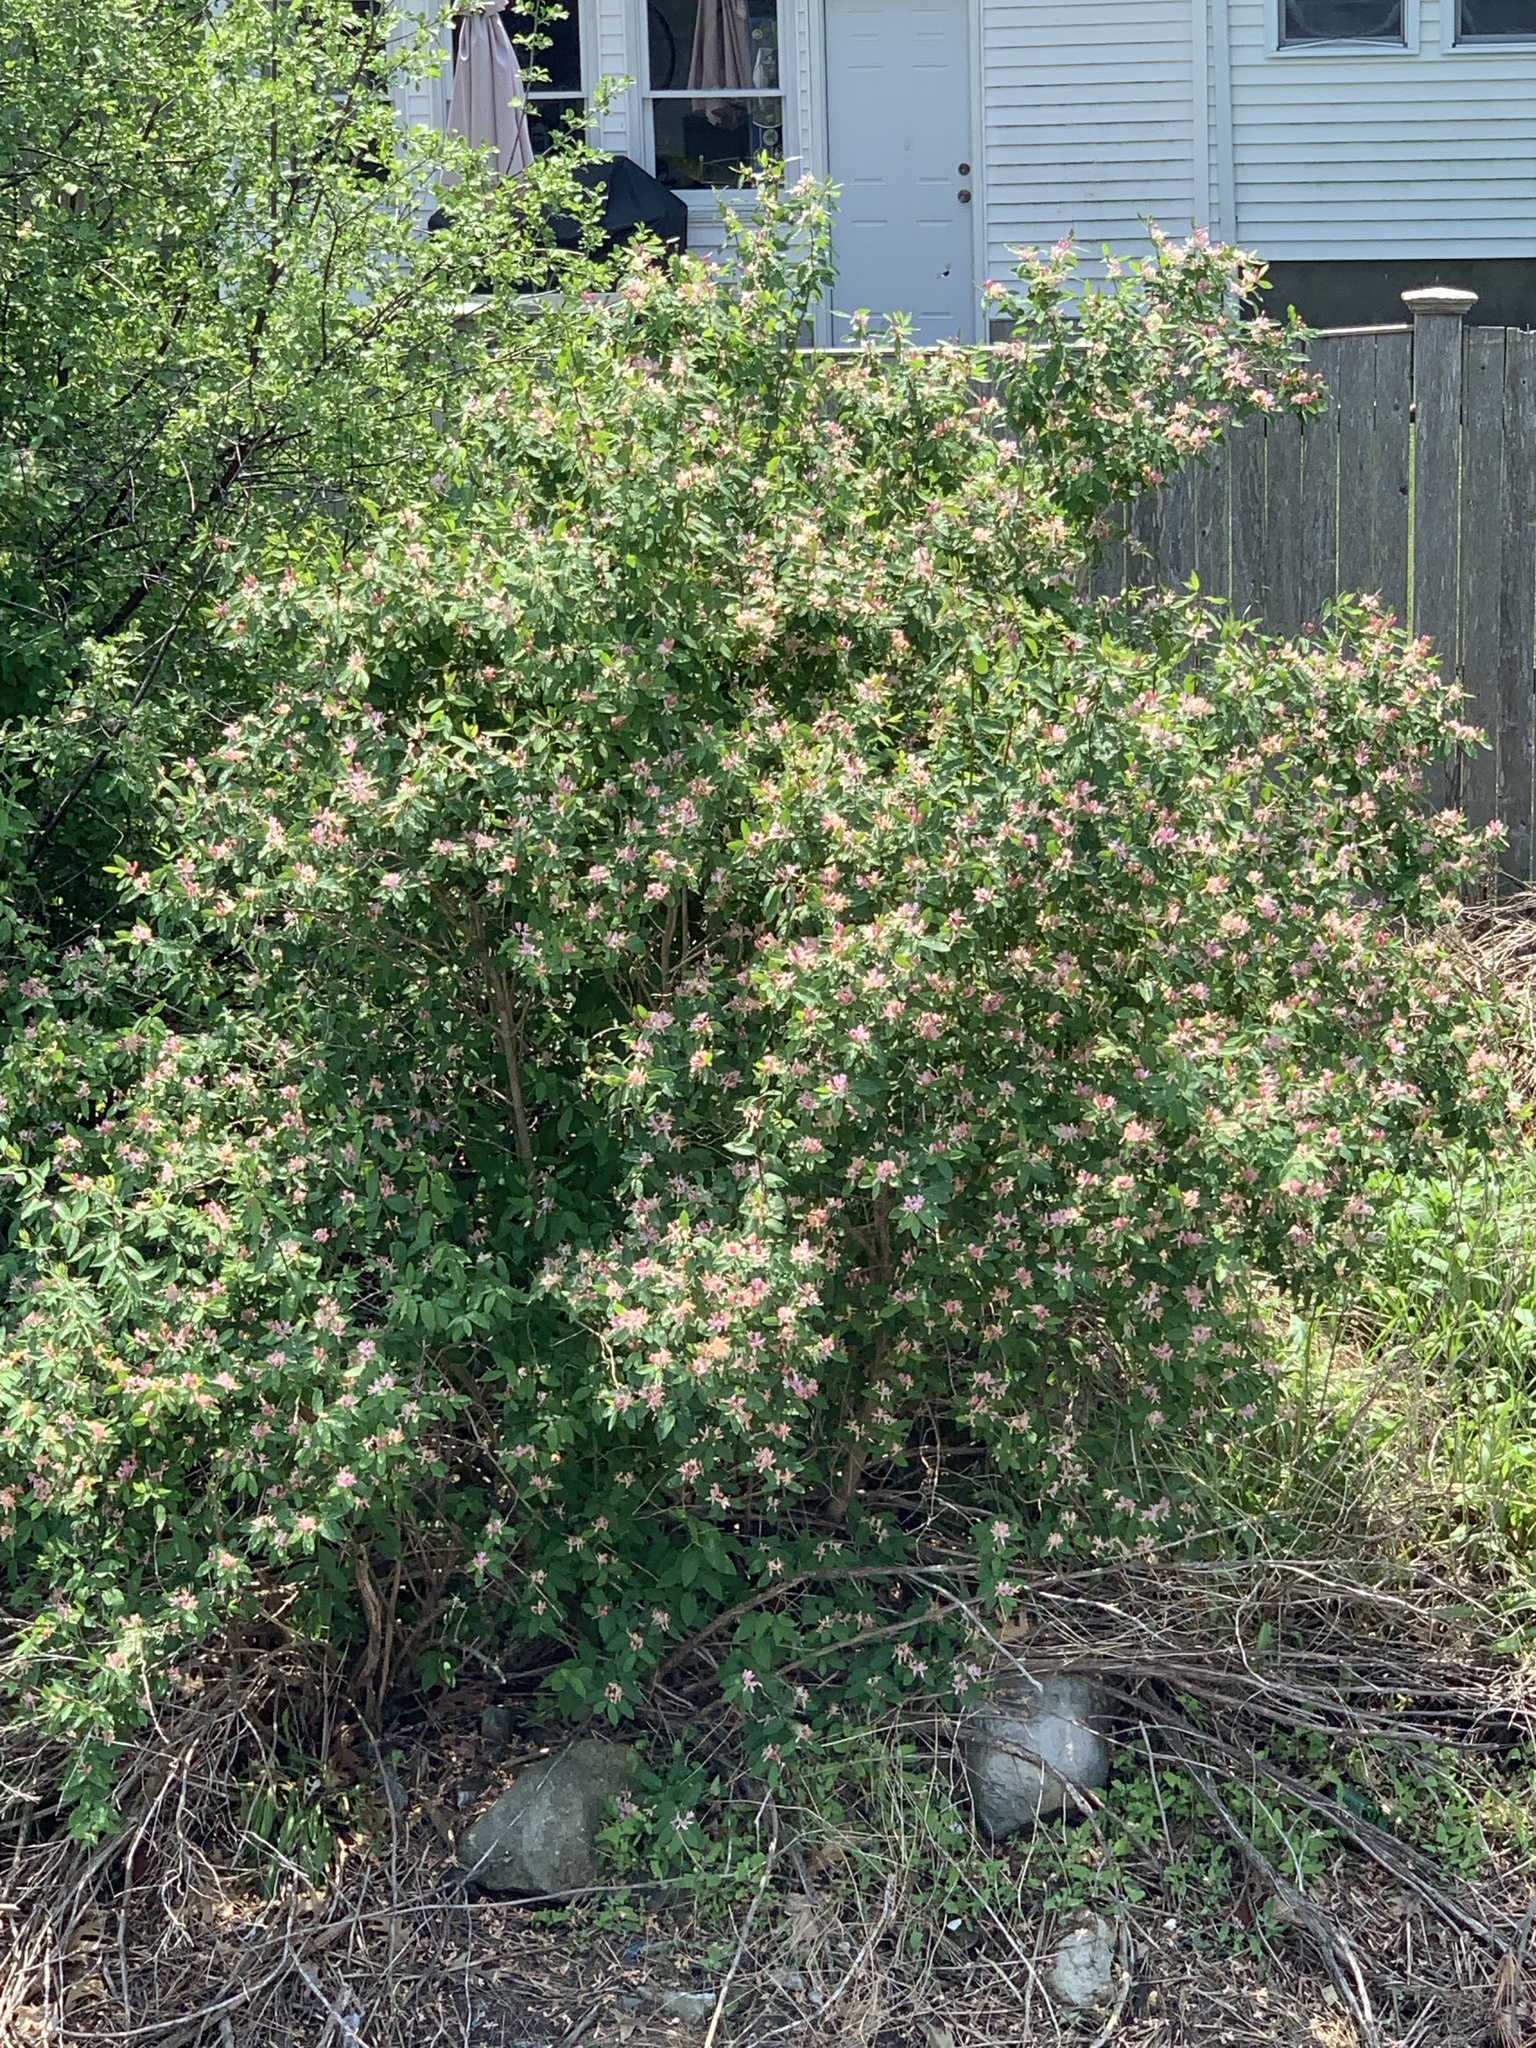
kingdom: Plantae
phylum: Tracheophyta
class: Magnoliopsida
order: Dipsacales
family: Caprifoliaceae
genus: Lonicera
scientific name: Lonicera
